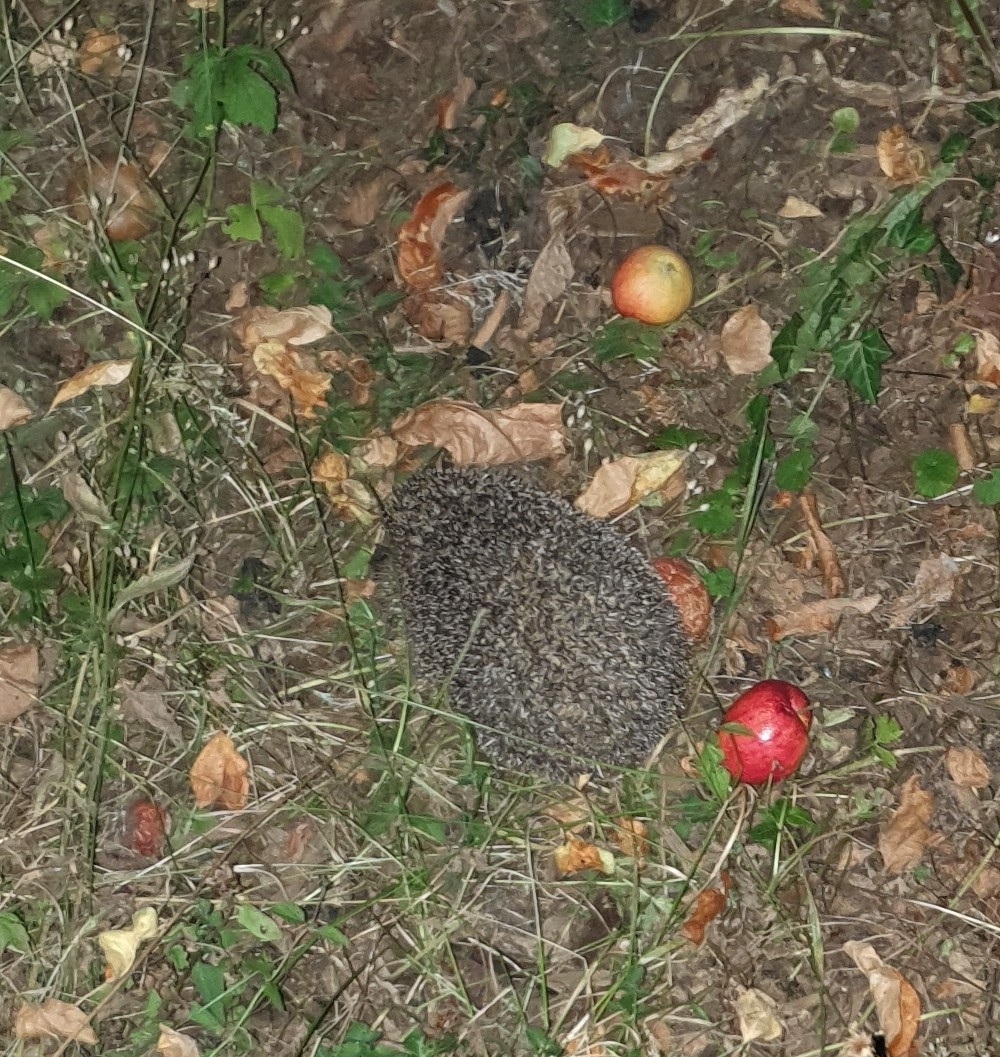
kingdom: Animalia
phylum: Chordata
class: Mammalia
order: Erinaceomorpha
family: Erinaceidae
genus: Erinaceus
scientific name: Erinaceus europaeus
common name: West european hedgehog
